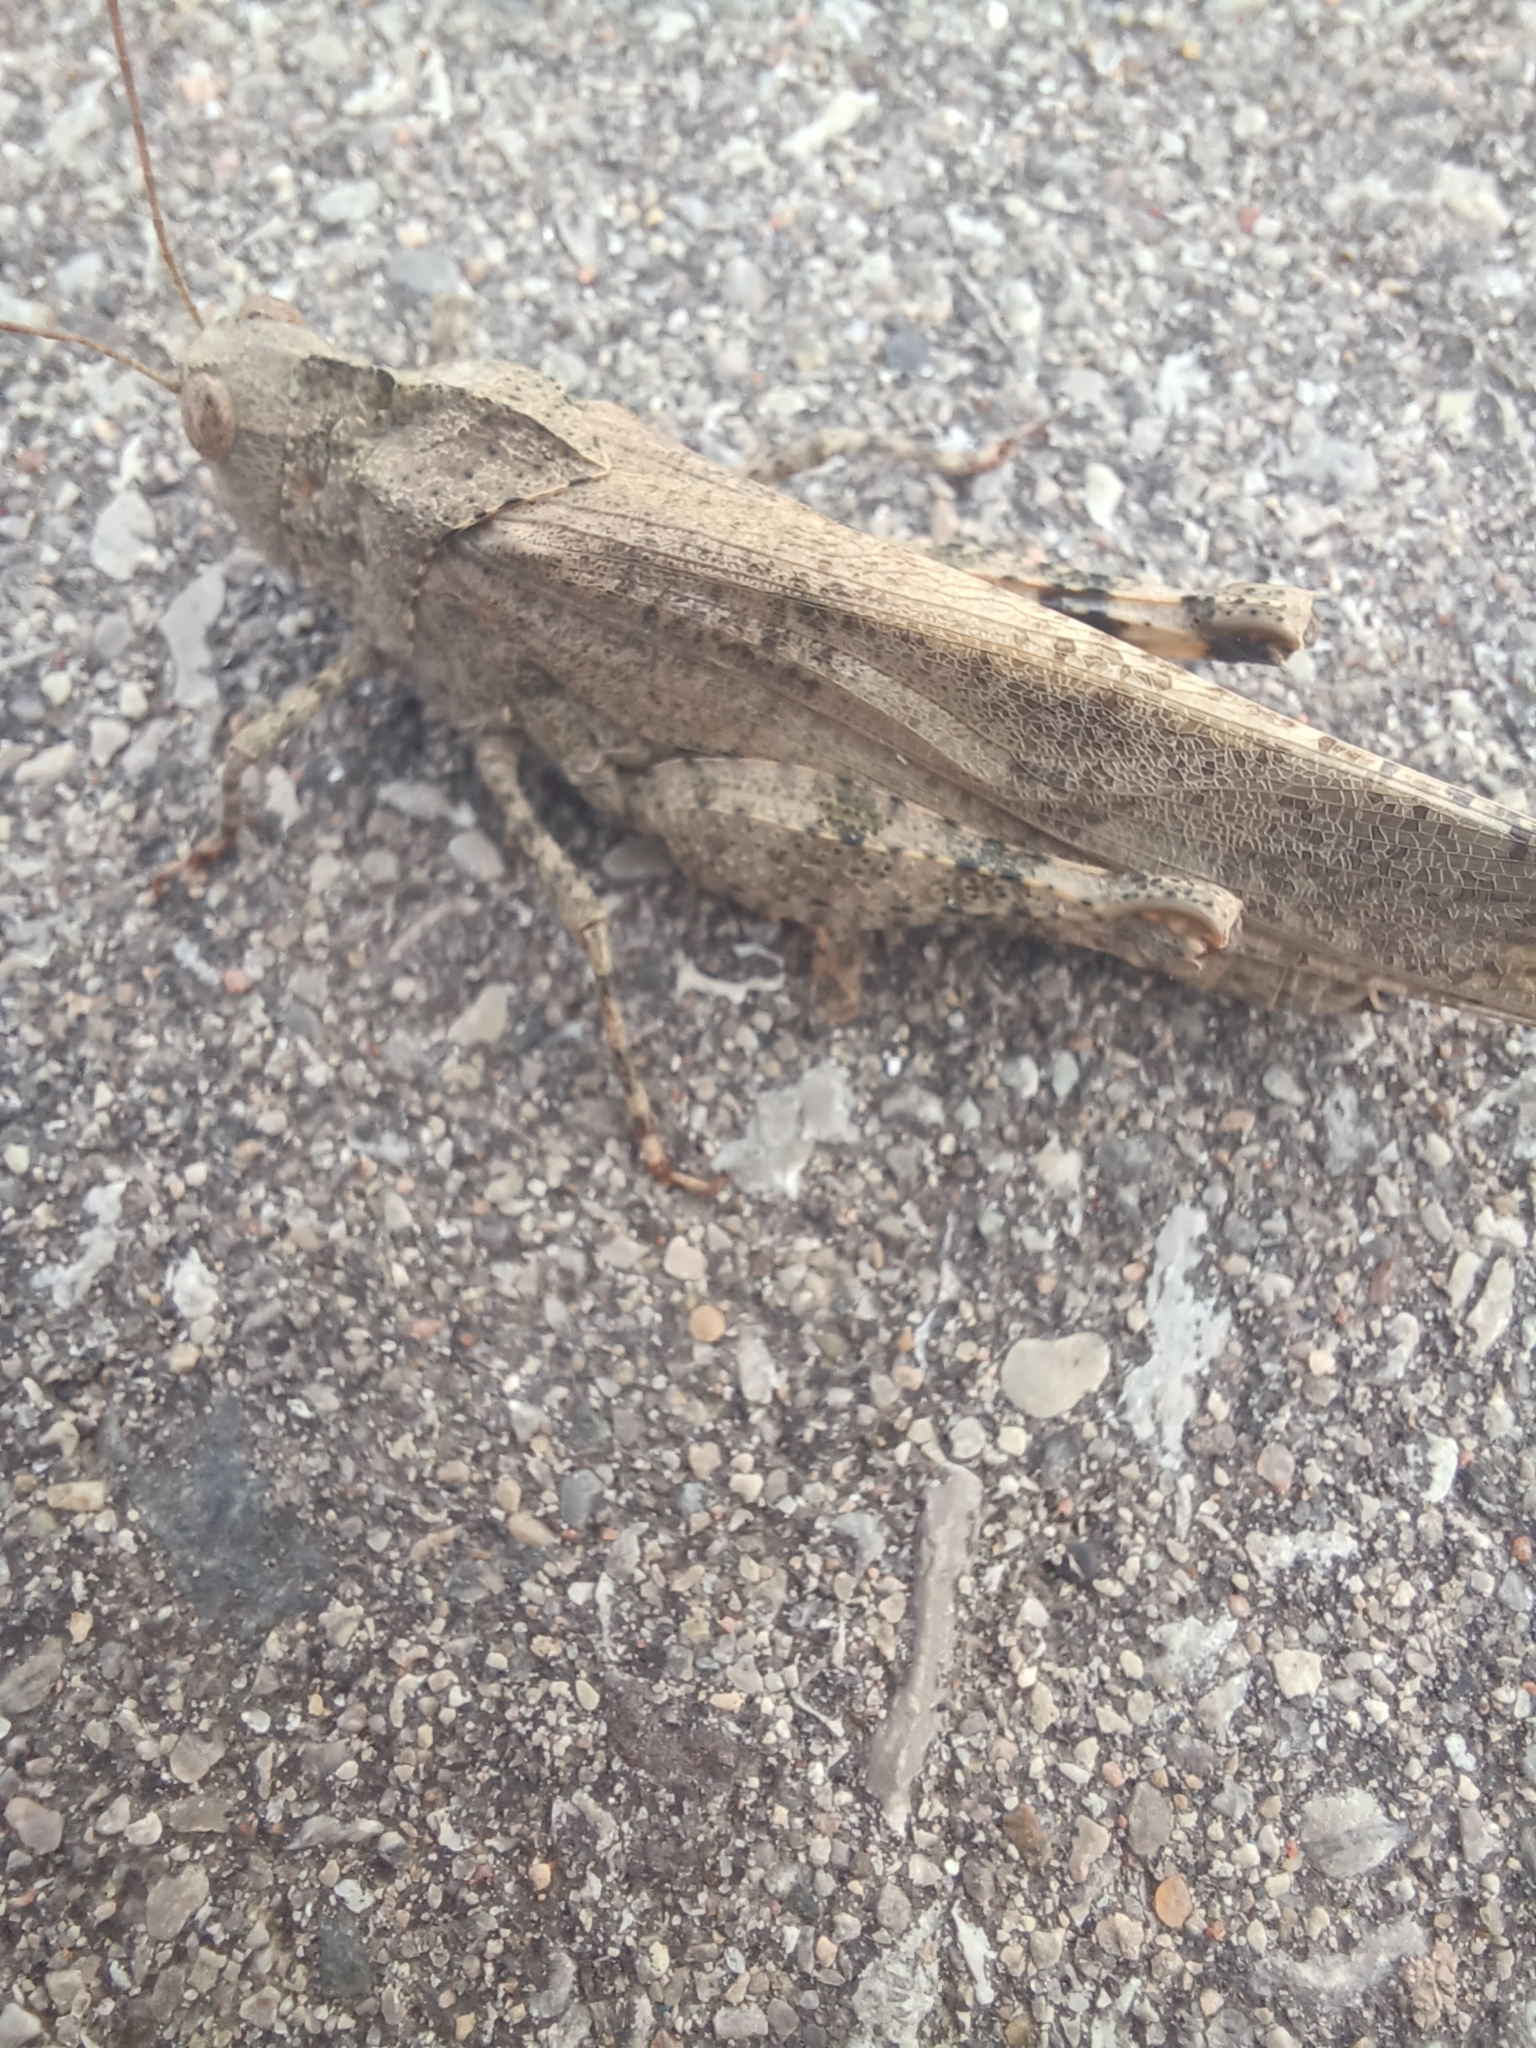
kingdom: Animalia
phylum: Arthropoda
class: Insecta
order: Orthoptera
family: Acrididae
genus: Dissosteira
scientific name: Dissosteira carolina
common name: Carolina grasshopper
